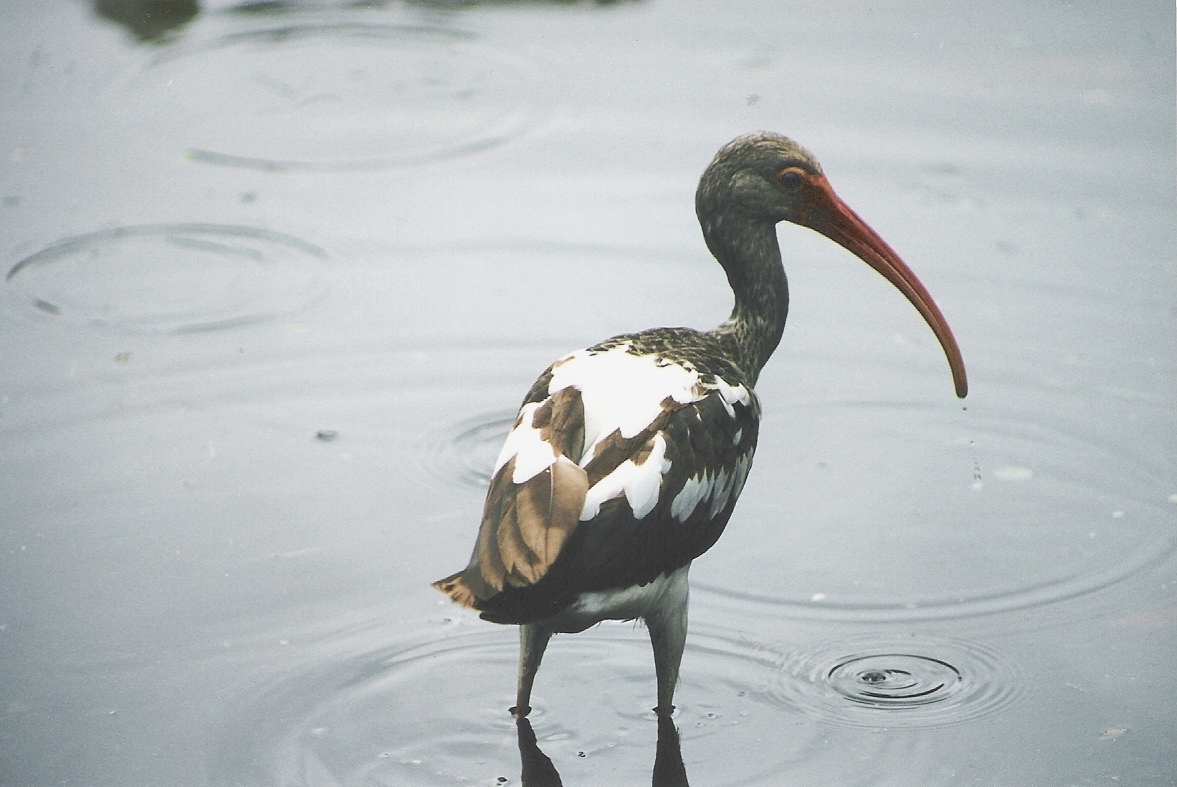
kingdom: Animalia
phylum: Chordata
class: Aves
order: Pelecaniformes
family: Threskiornithidae
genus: Eudocimus
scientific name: Eudocimus albus
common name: White ibis
